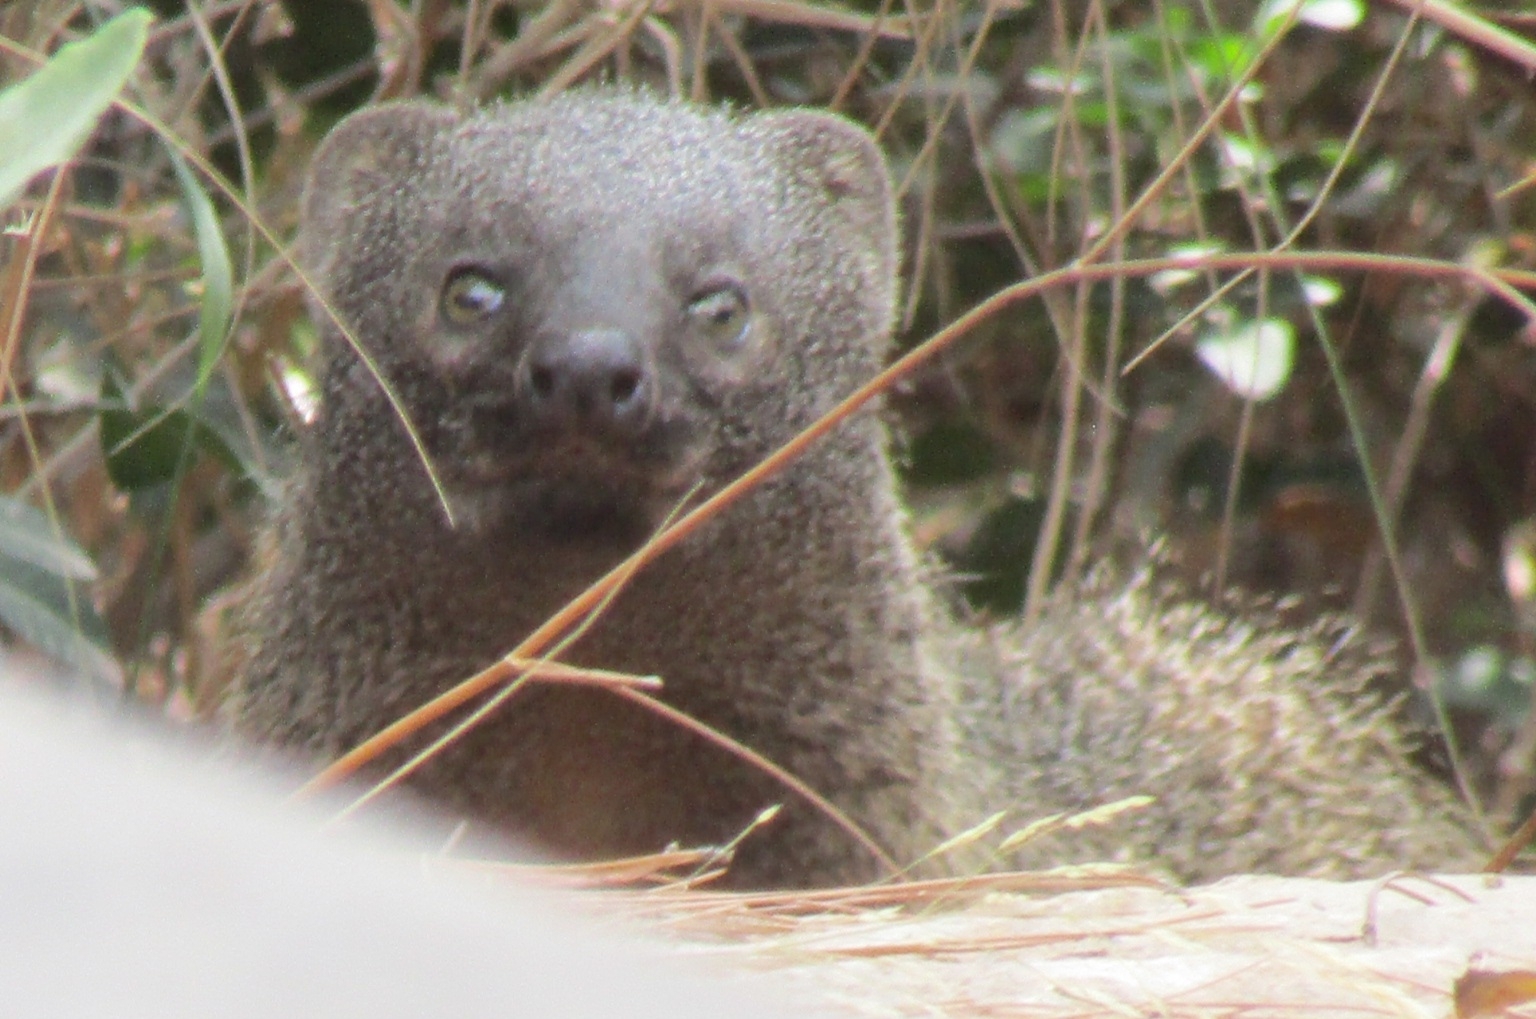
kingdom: Animalia
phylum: Chordata
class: Mammalia
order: Carnivora
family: Herpestidae
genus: Herpestes
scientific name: Herpestes ichneumon
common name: Egyptian mongoose
